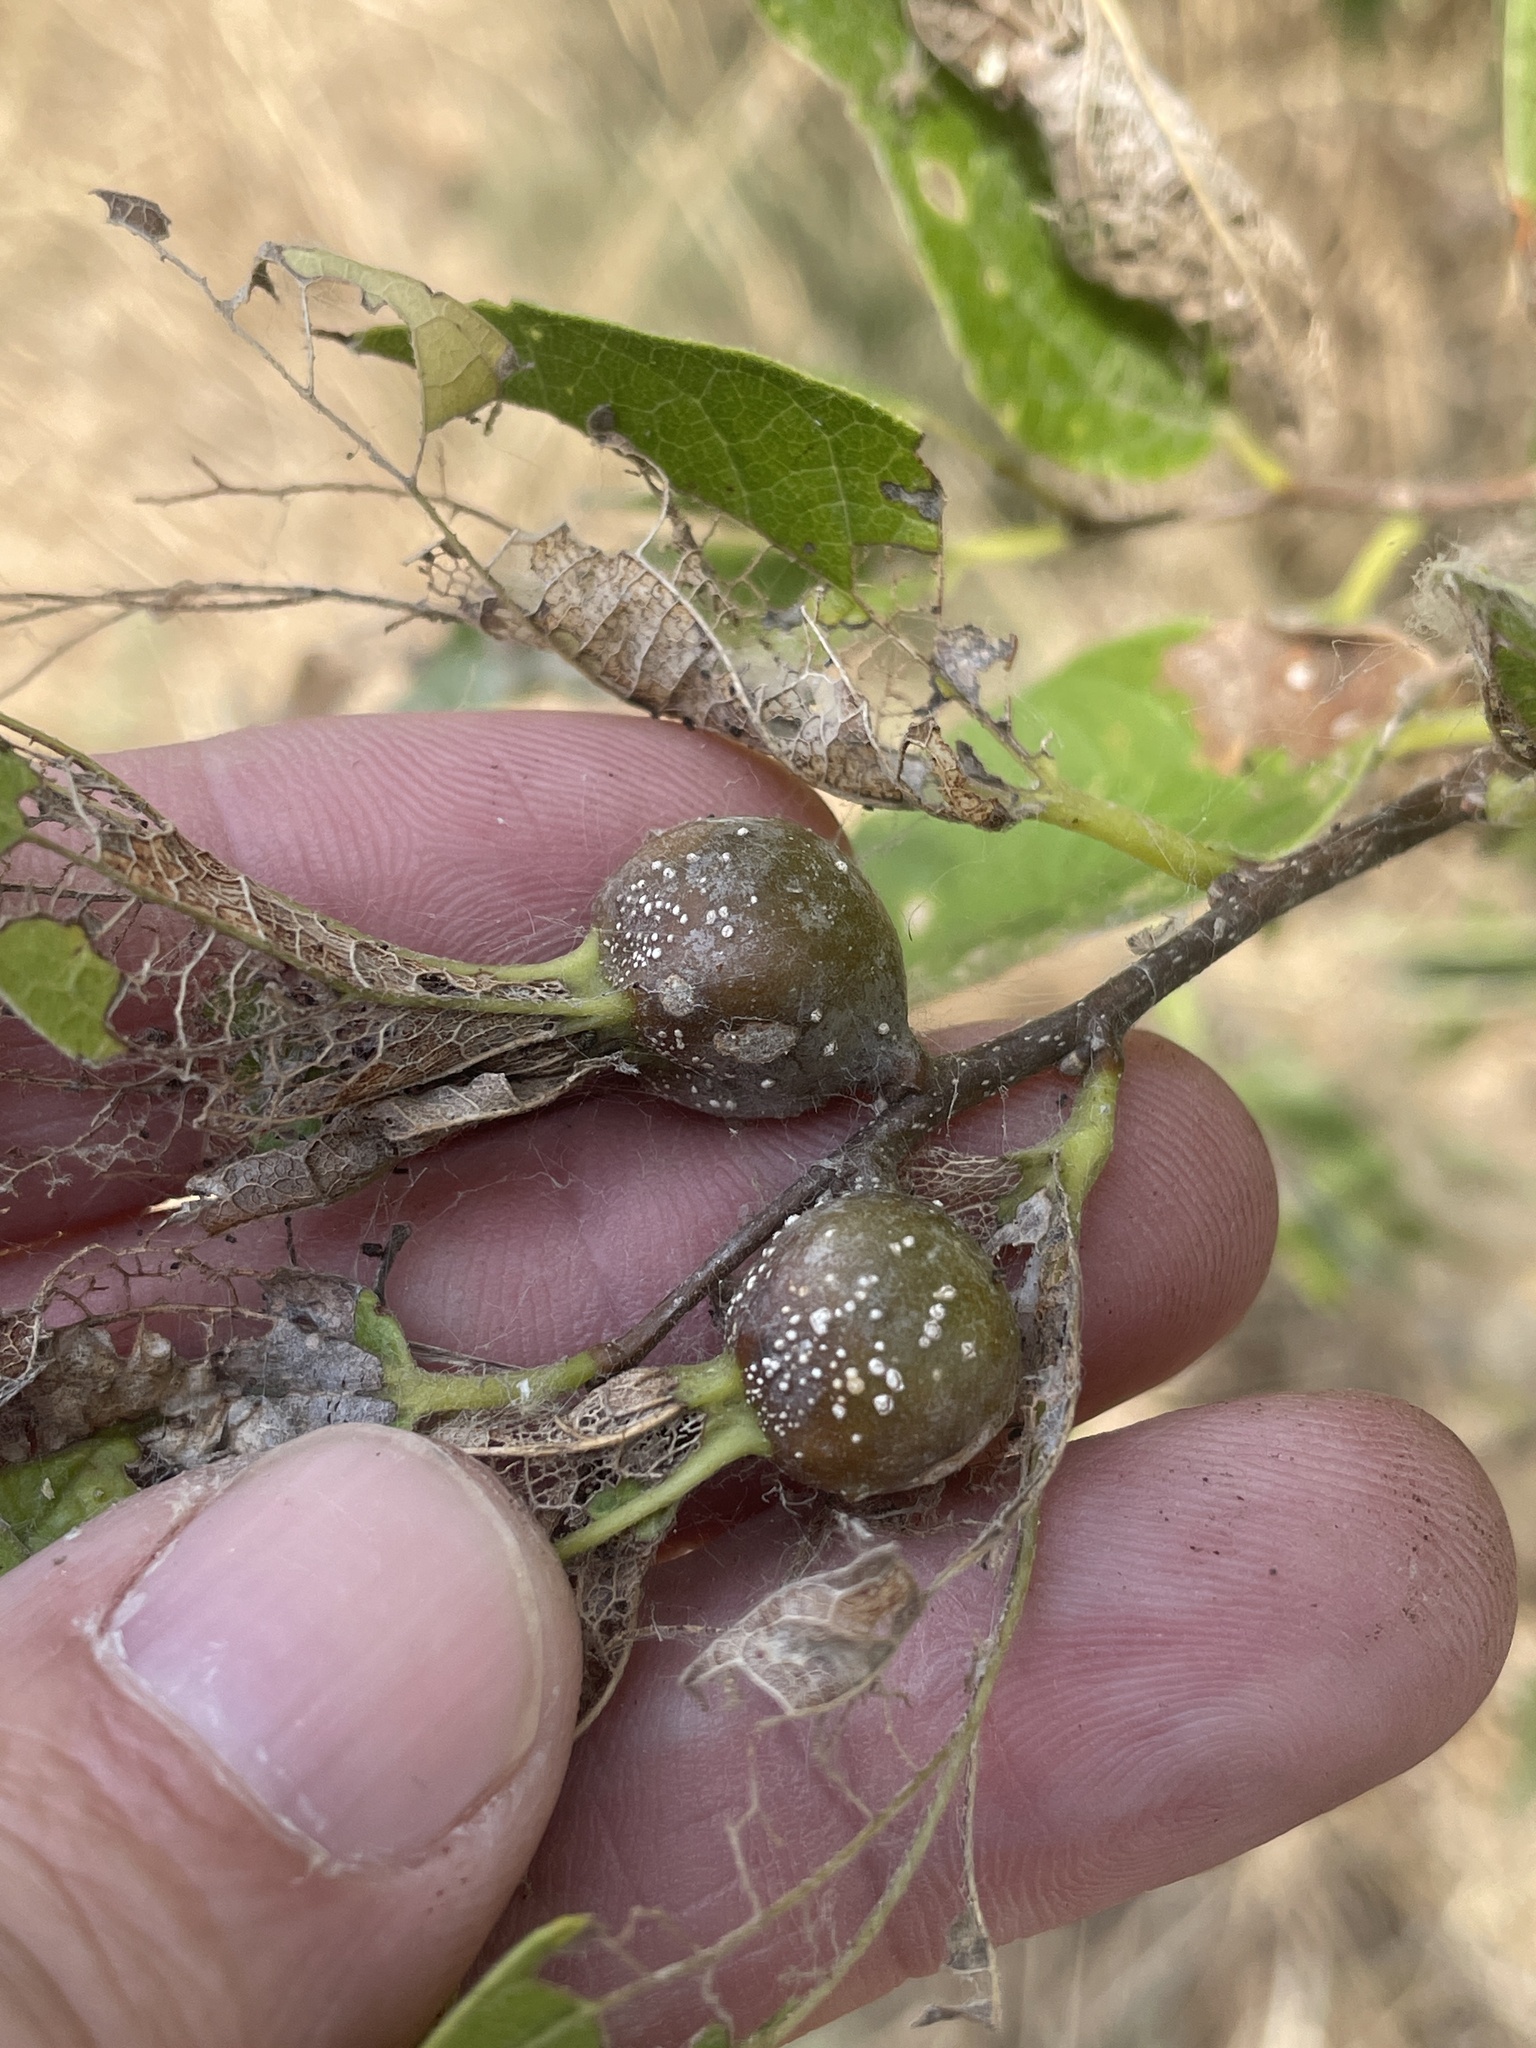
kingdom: Animalia
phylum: Arthropoda
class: Insecta
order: Hemiptera
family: Aphalaridae
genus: Pachypsylla
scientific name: Pachypsylla venusta
